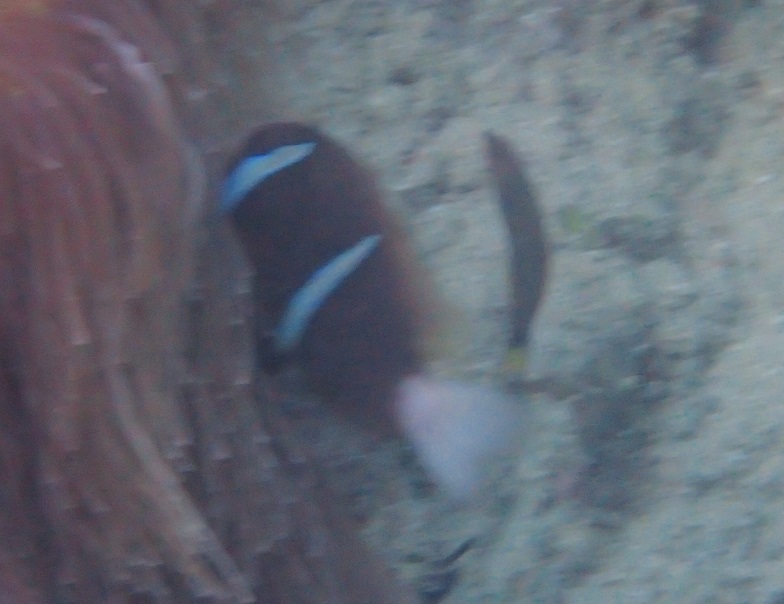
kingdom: Animalia
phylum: Chordata
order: Perciformes
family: Pomacentridae
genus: Amphiprion
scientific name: Amphiprion akindynos
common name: Barrier reef anemonefish
